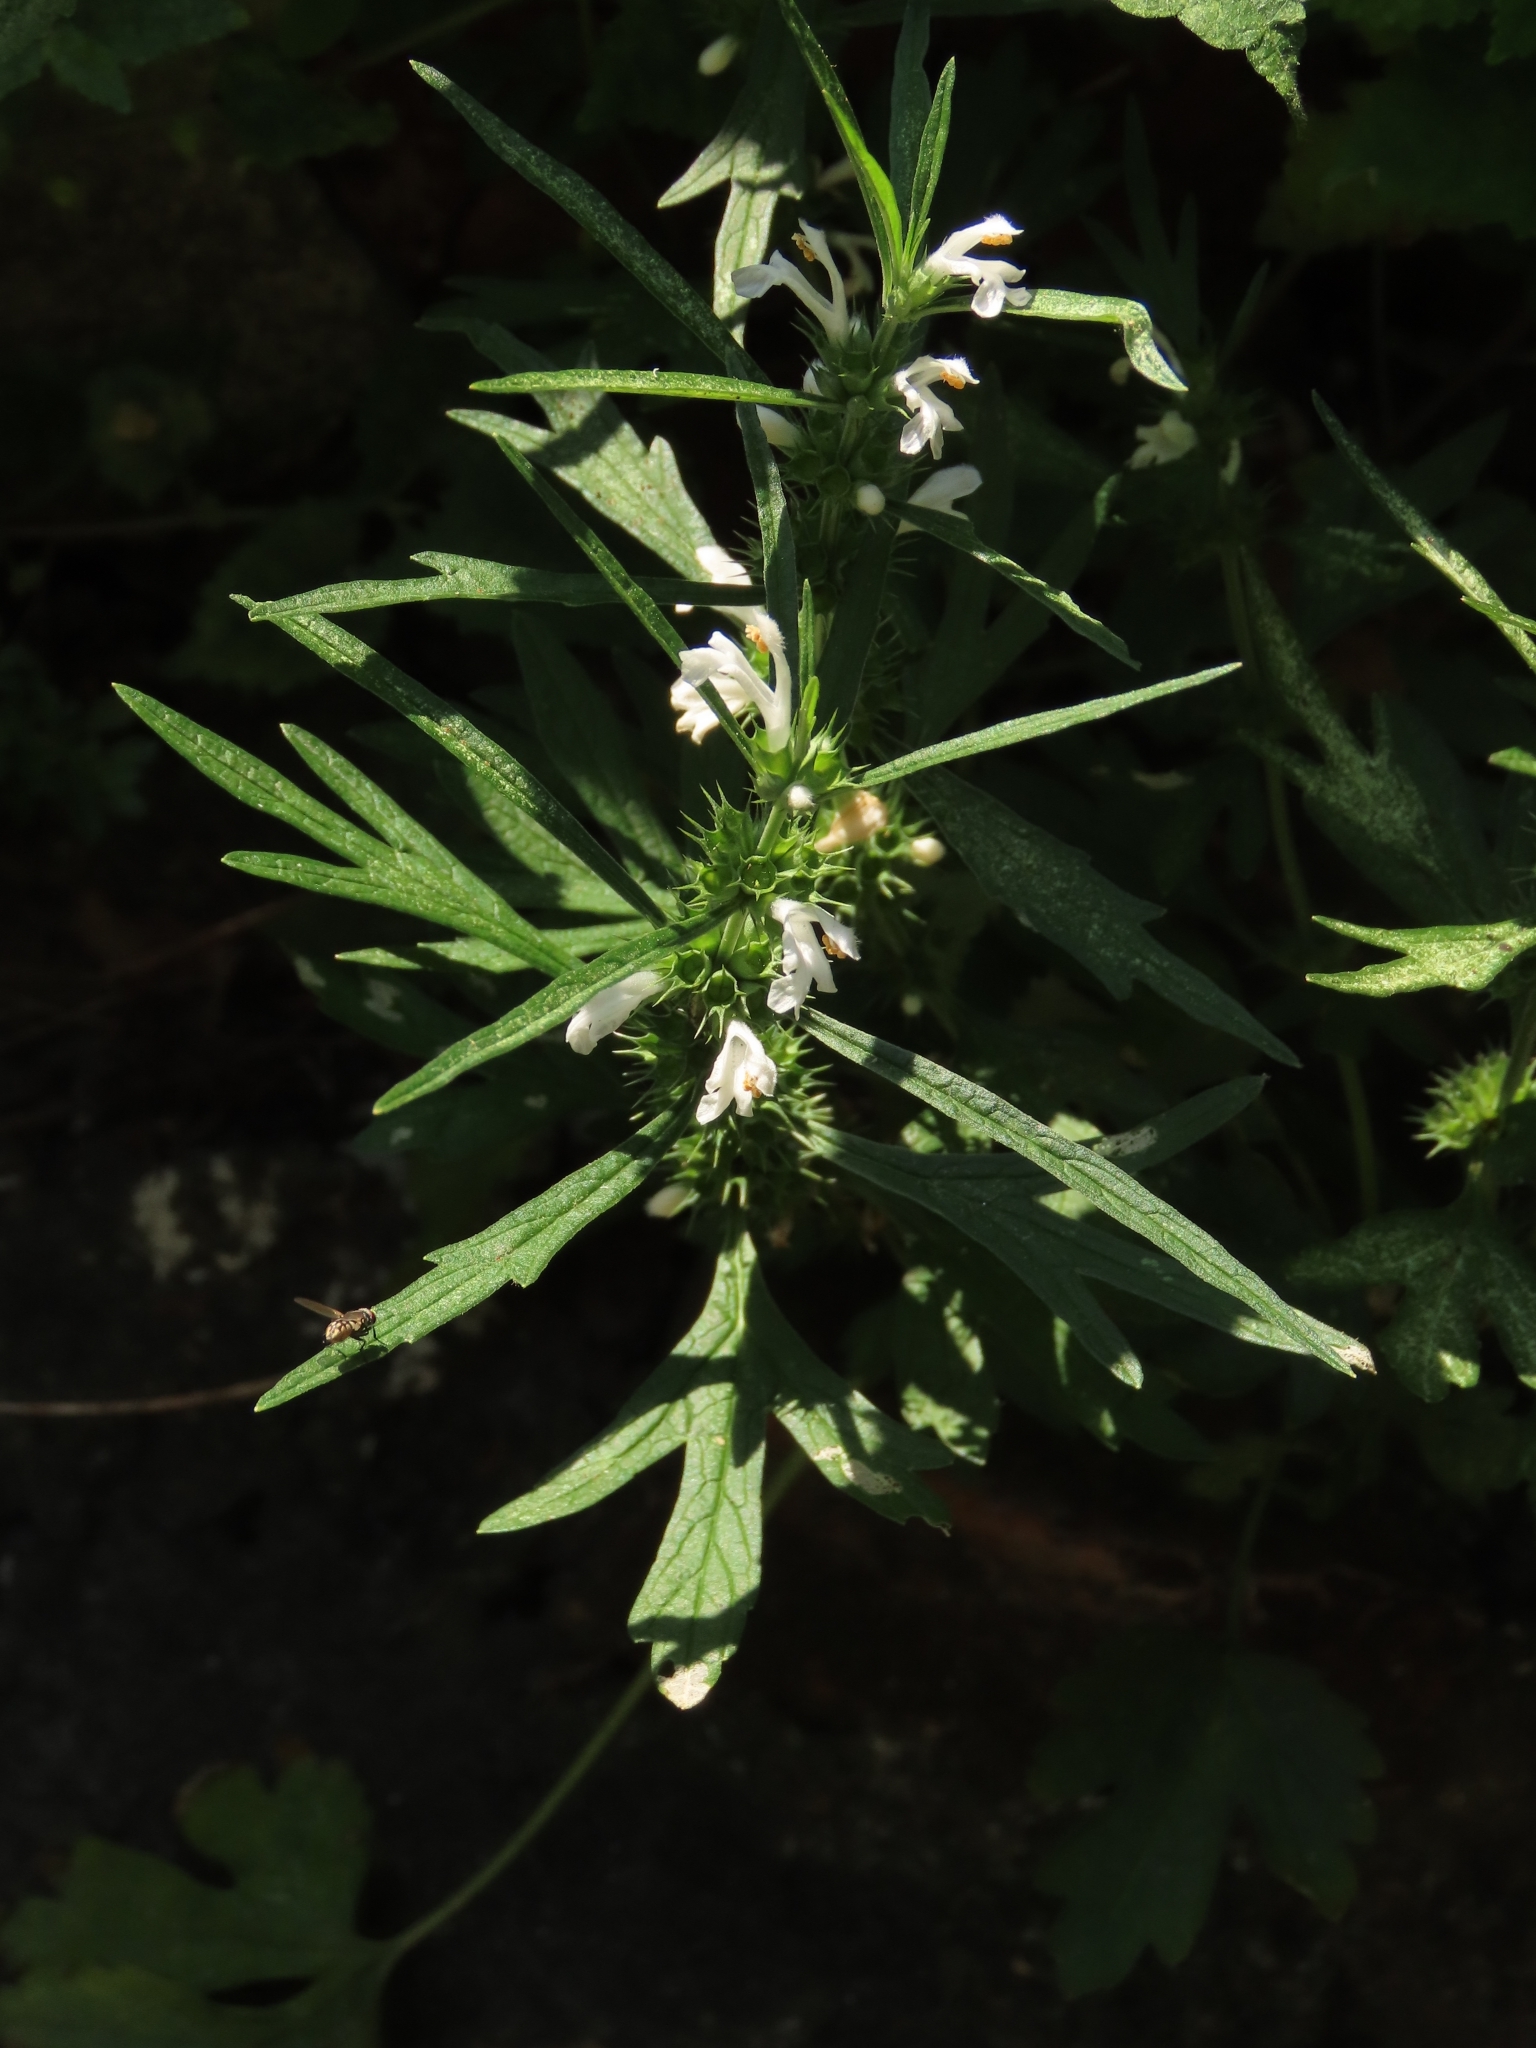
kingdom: Plantae
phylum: Tracheophyta
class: Magnoliopsida
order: Lamiales
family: Lamiaceae
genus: Leonurus
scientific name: Leonurus sibiricus
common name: Honeyweed
